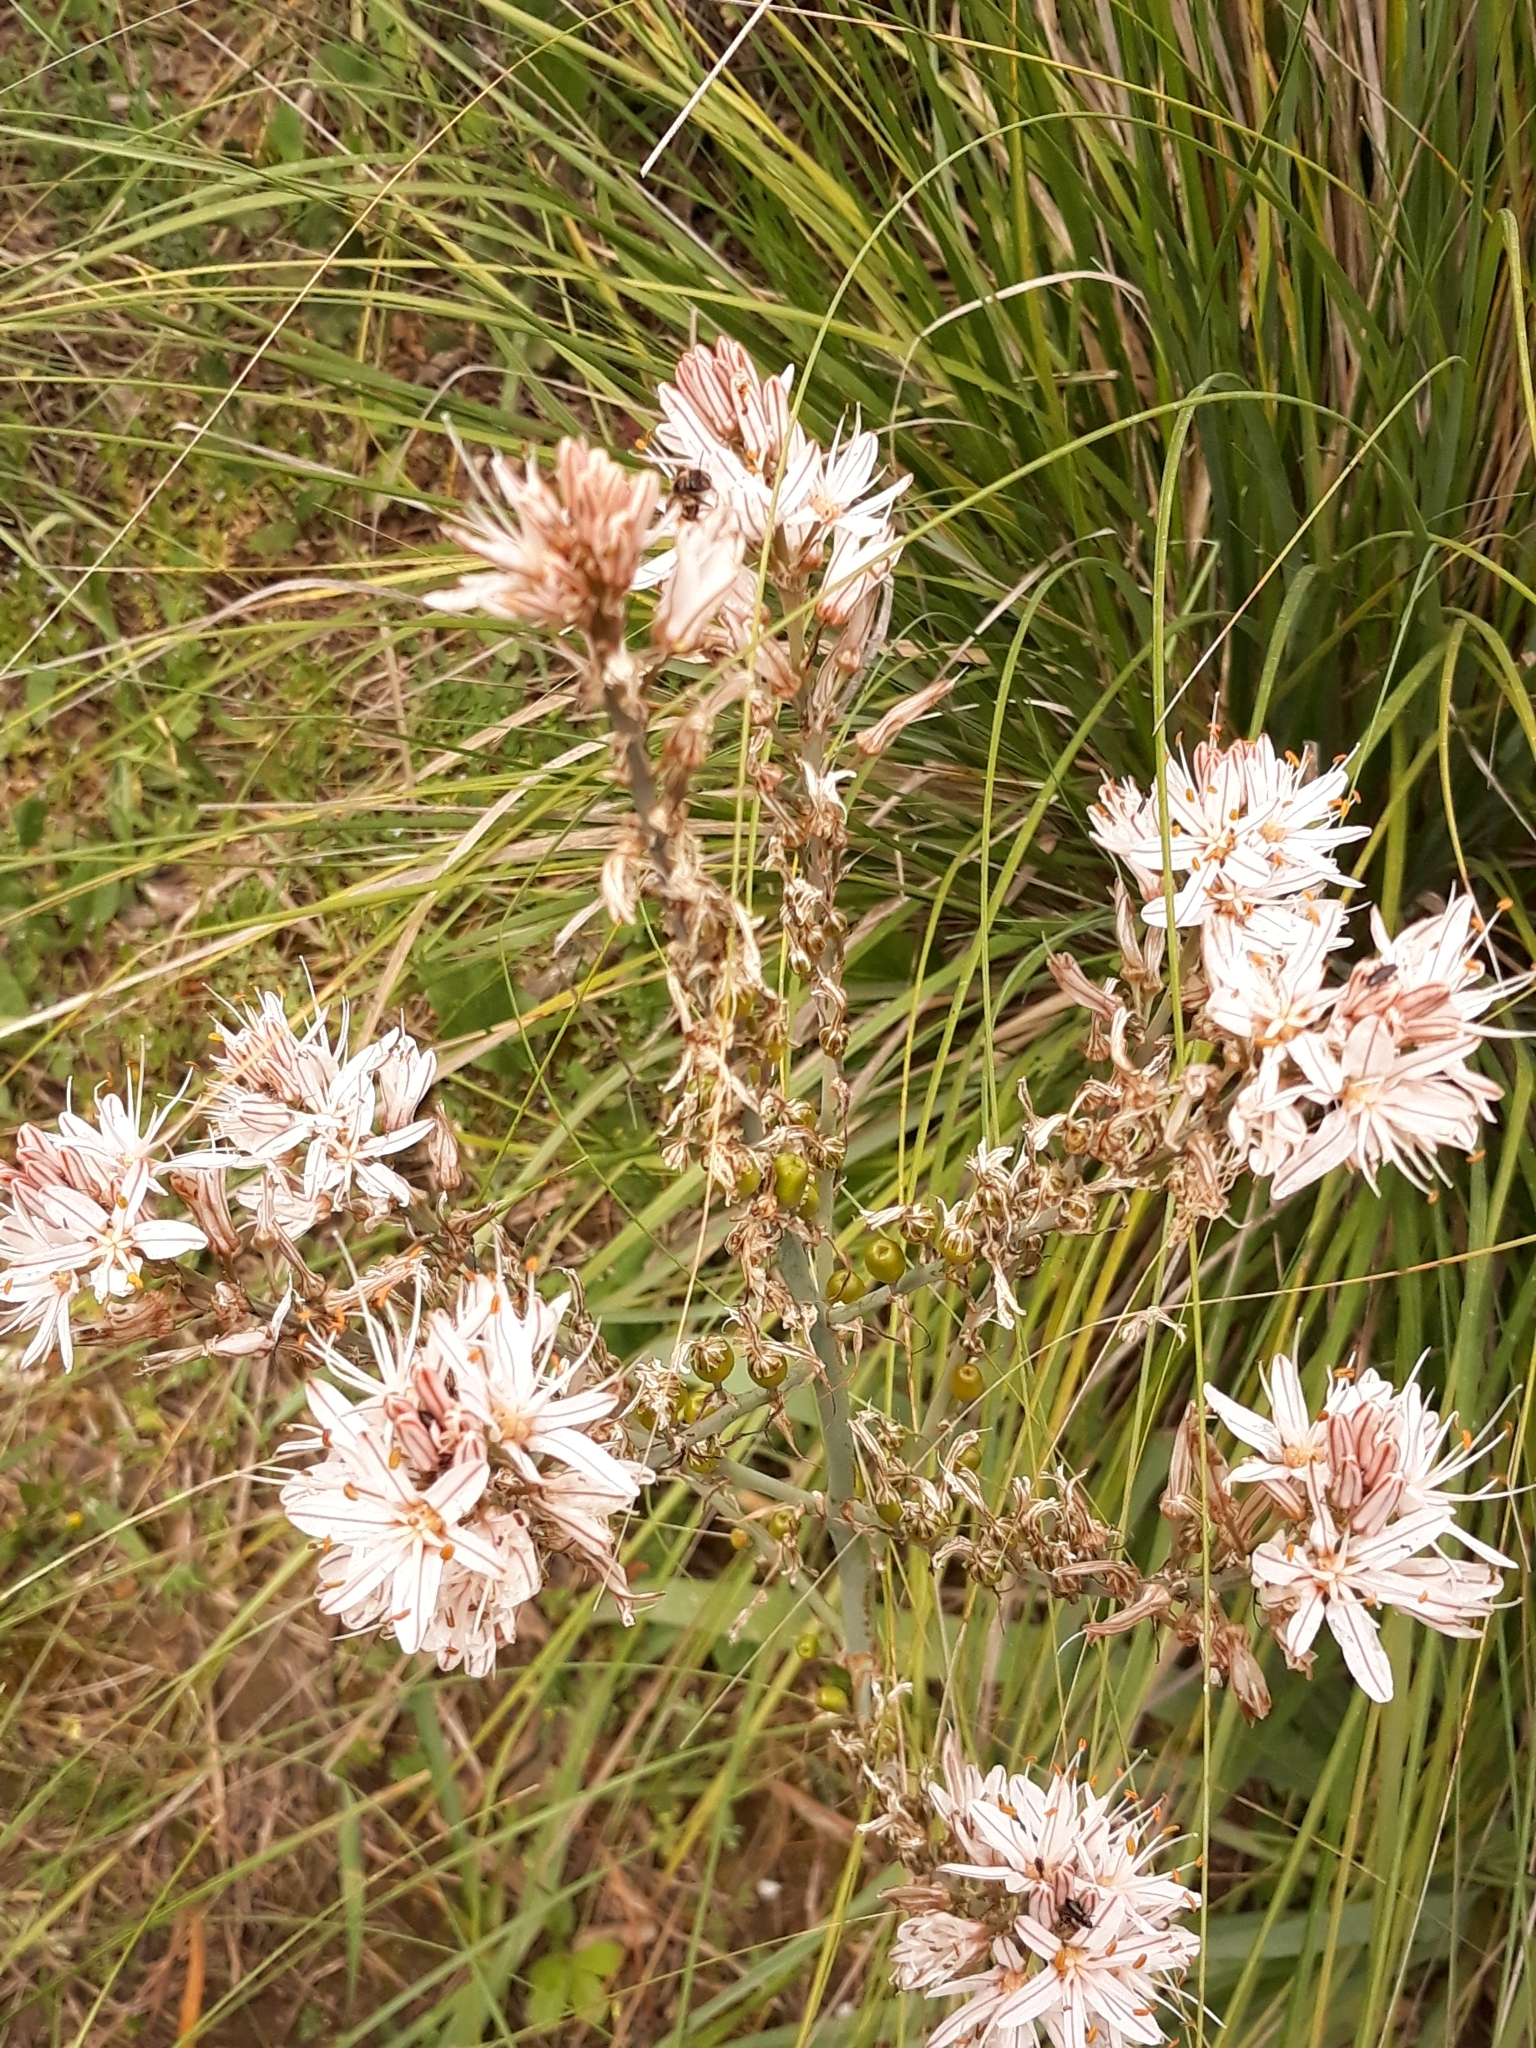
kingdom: Plantae
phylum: Tracheophyta
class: Liliopsida
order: Asparagales
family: Asphodelaceae
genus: Asphodelus
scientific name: Asphodelus ramosus
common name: Silverrod
